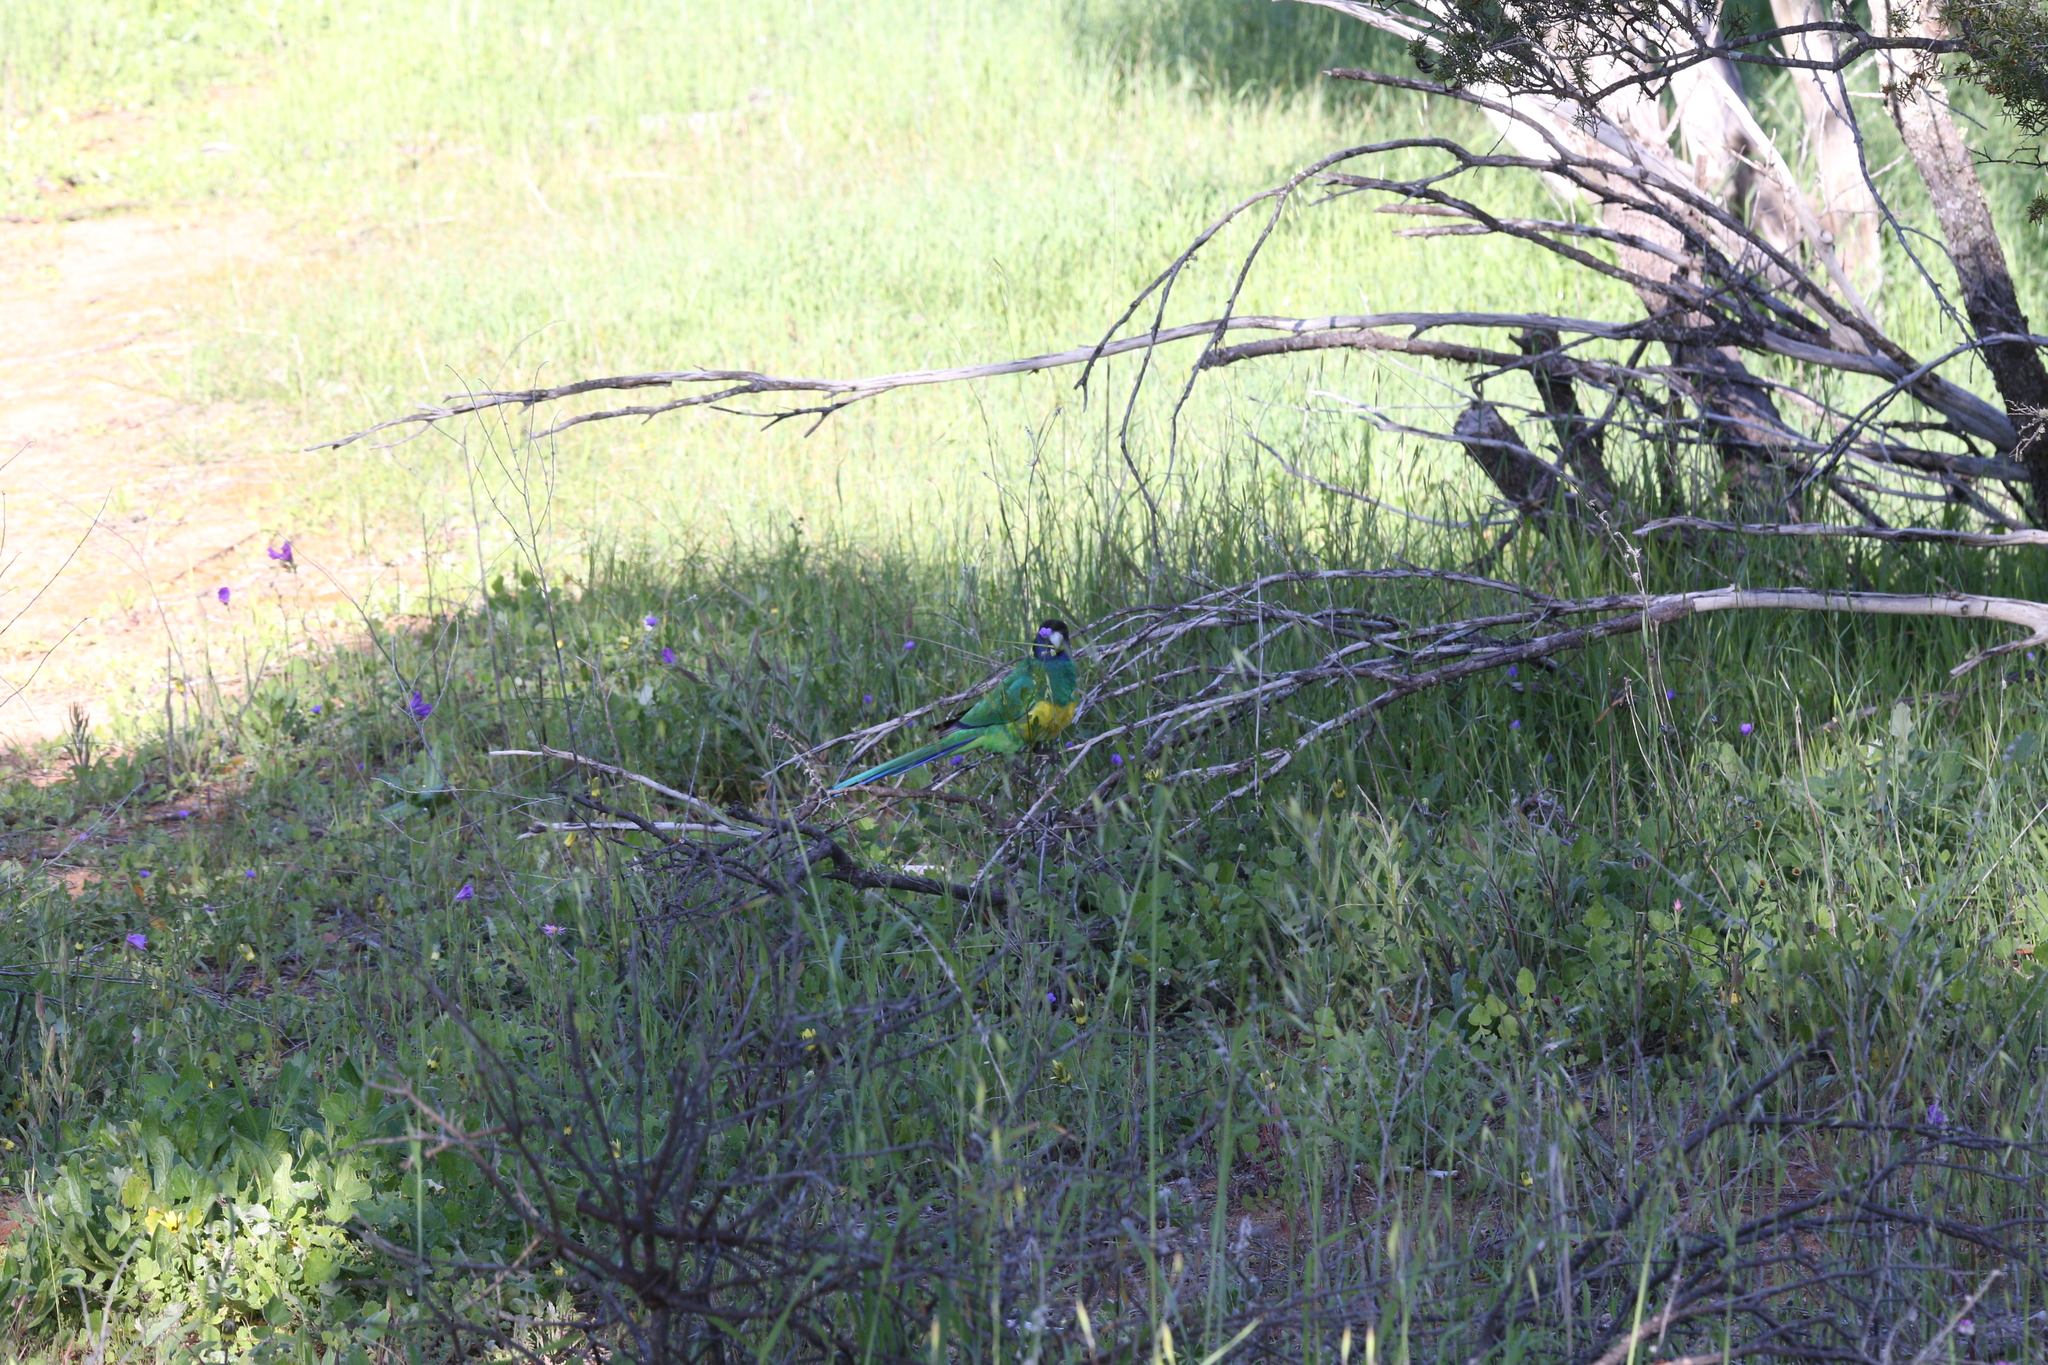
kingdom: Animalia
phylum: Chordata
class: Aves
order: Psittaciformes
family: Psittacidae
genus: Barnardius
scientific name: Barnardius zonarius
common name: Australian ringneck
